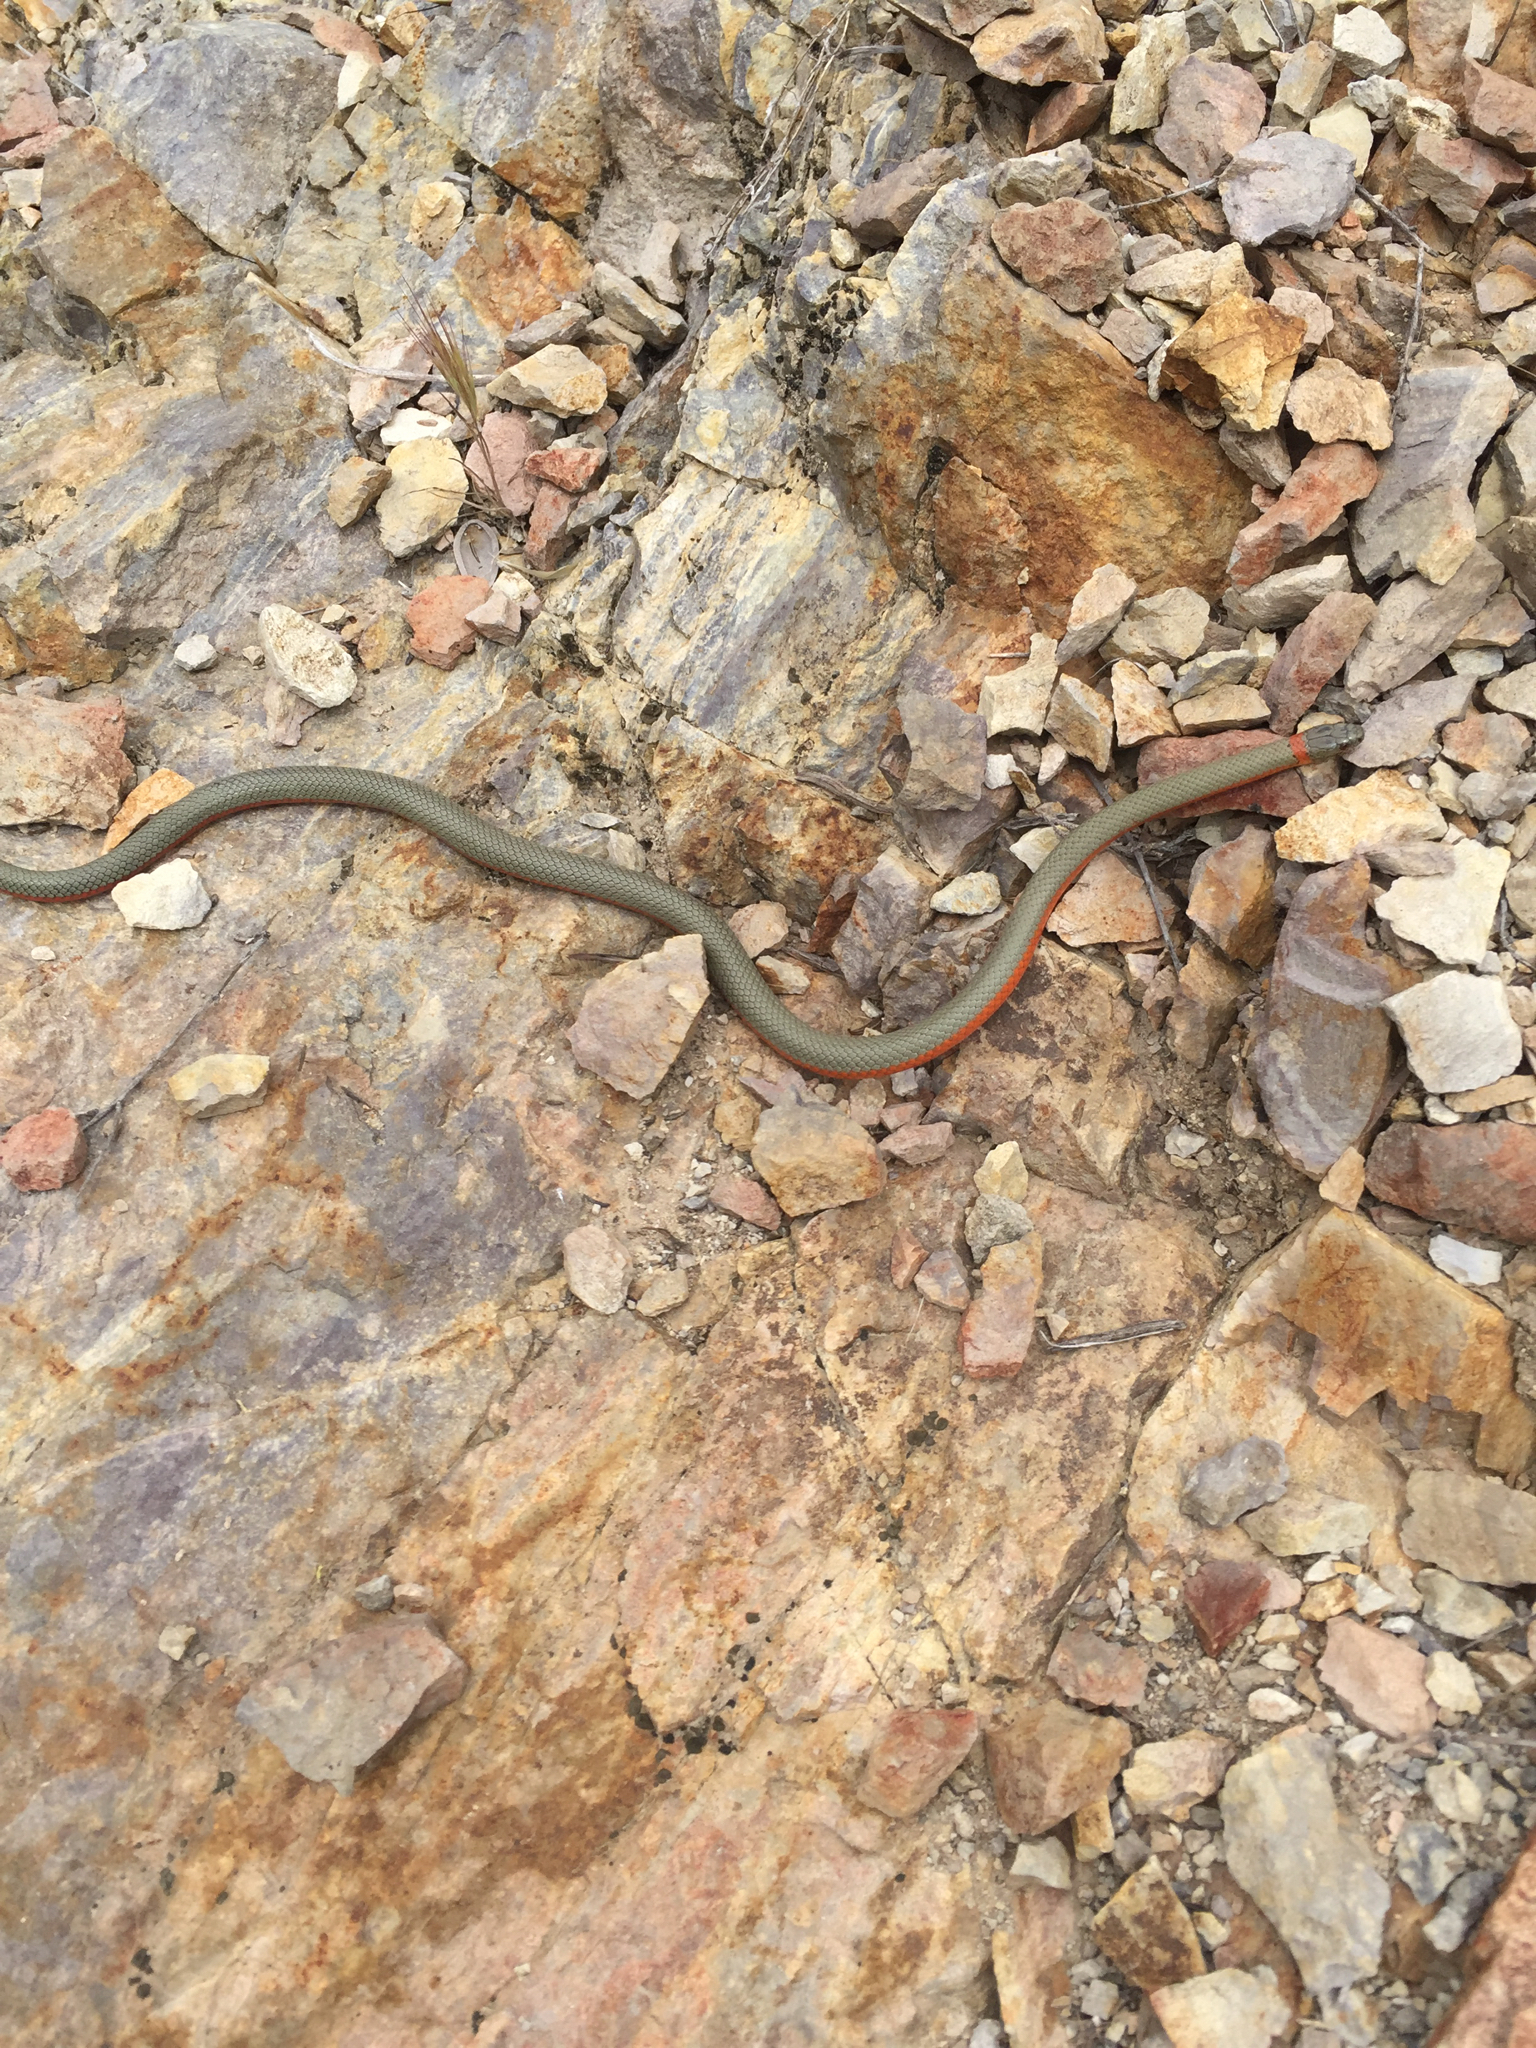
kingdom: Animalia
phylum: Chordata
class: Squamata
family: Colubridae
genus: Diadophis
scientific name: Diadophis punctatus
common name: Ringneck snake
